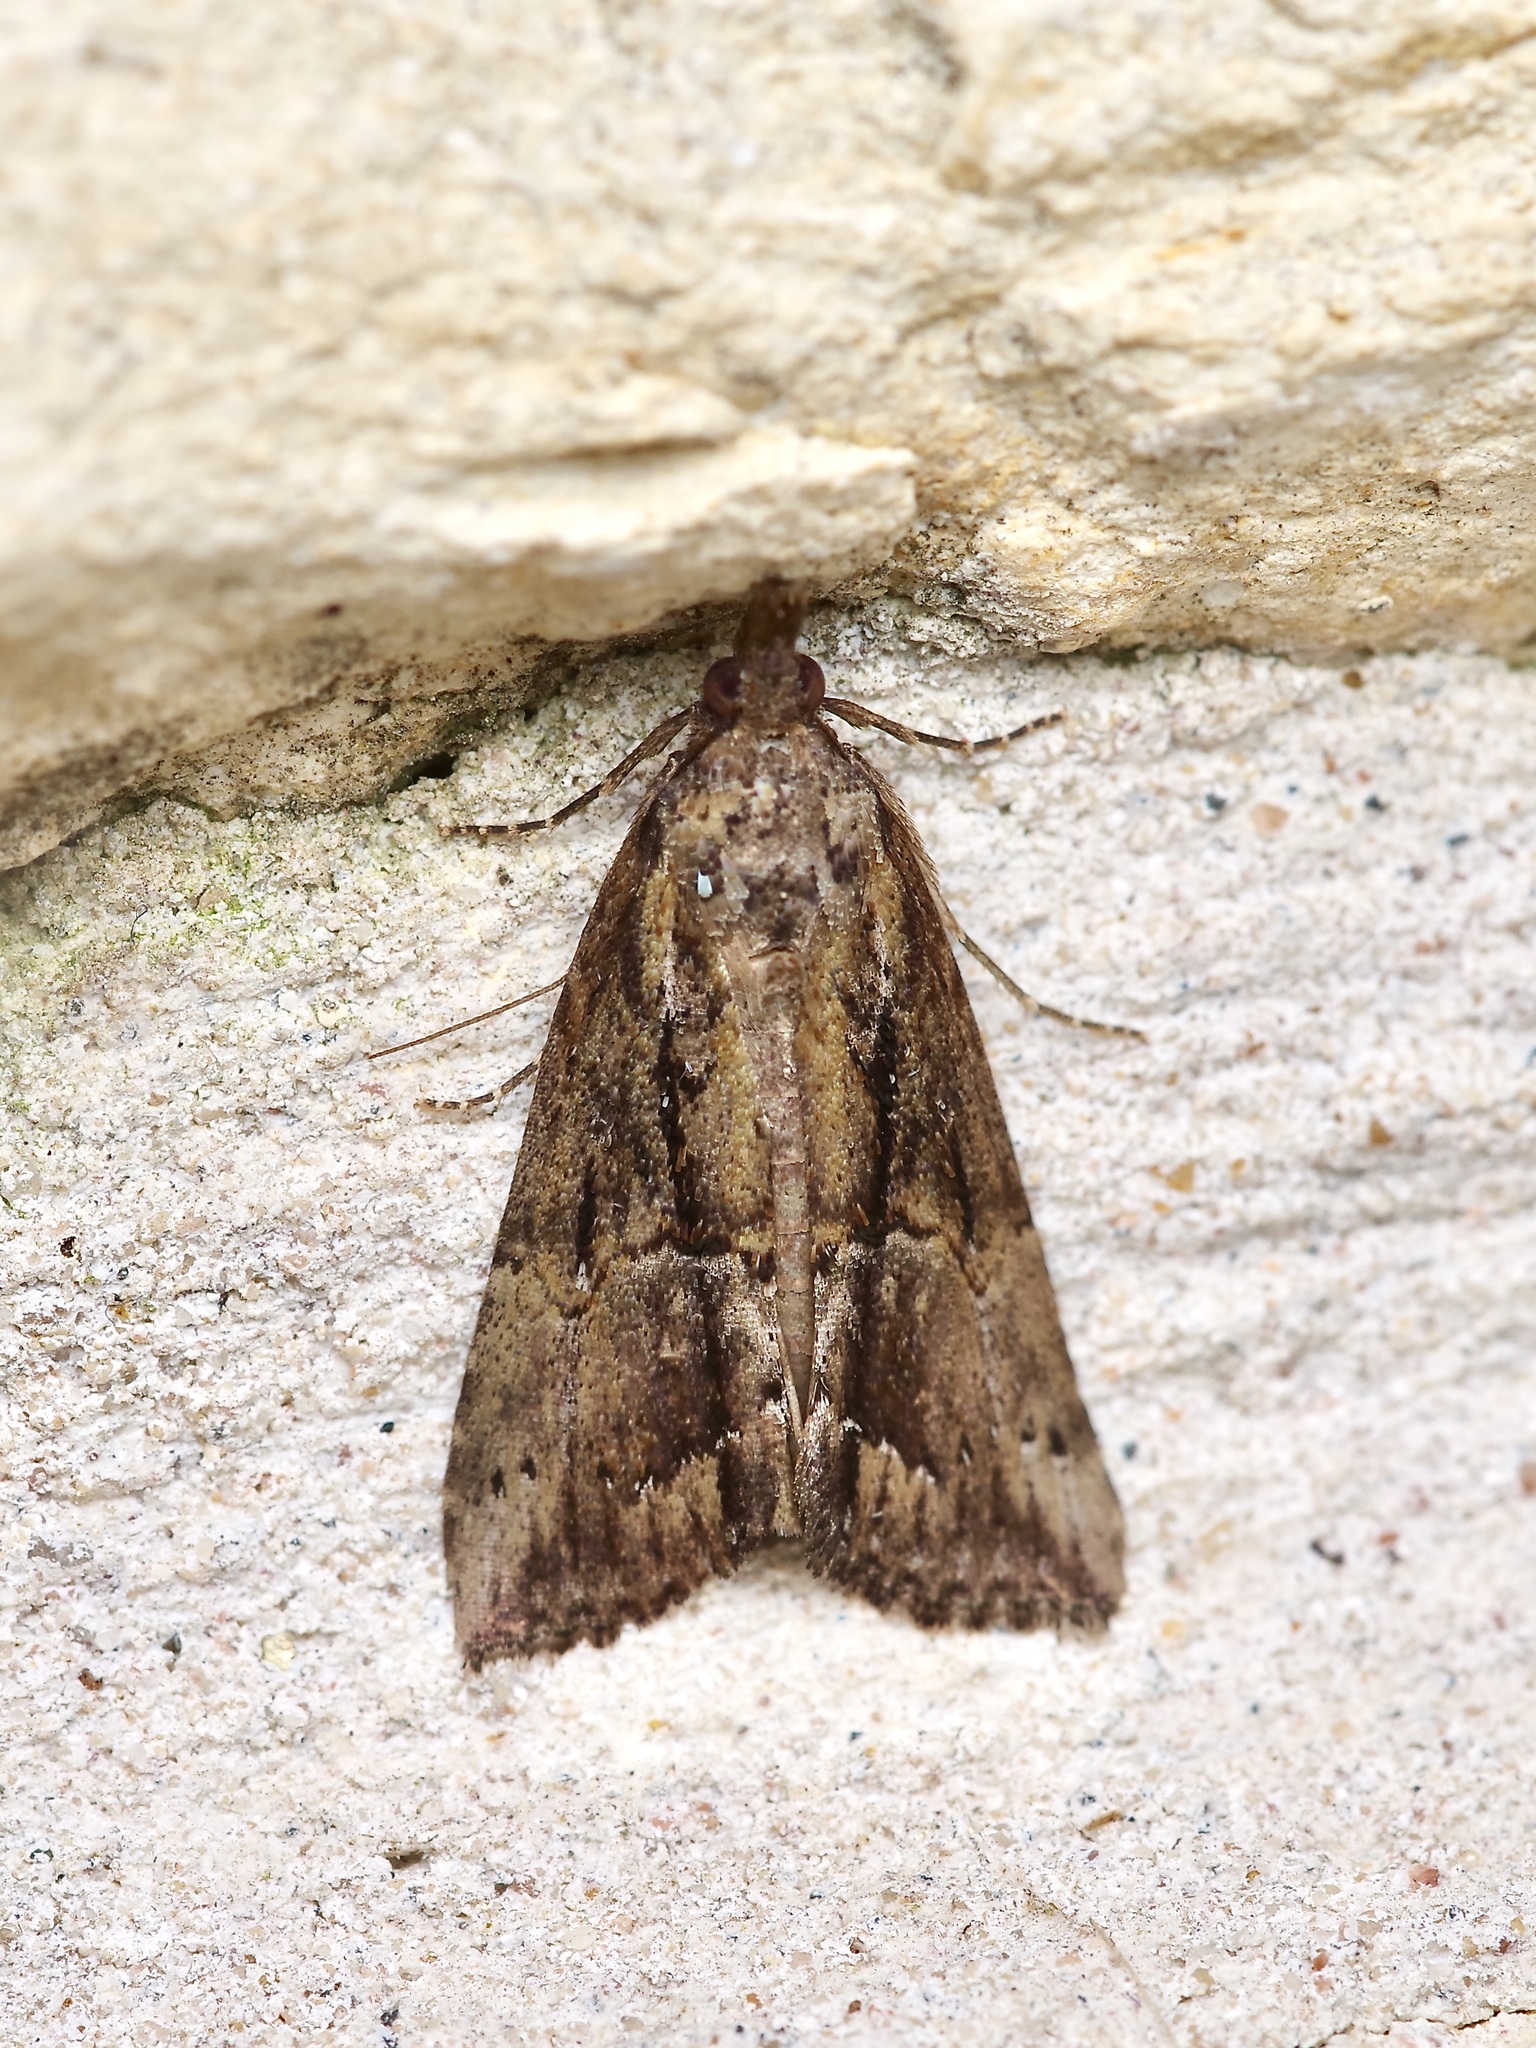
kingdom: Animalia
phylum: Arthropoda
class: Insecta
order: Lepidoptera
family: Erebidae
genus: Hypena
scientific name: Hypena scabra
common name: Green cloverworm
